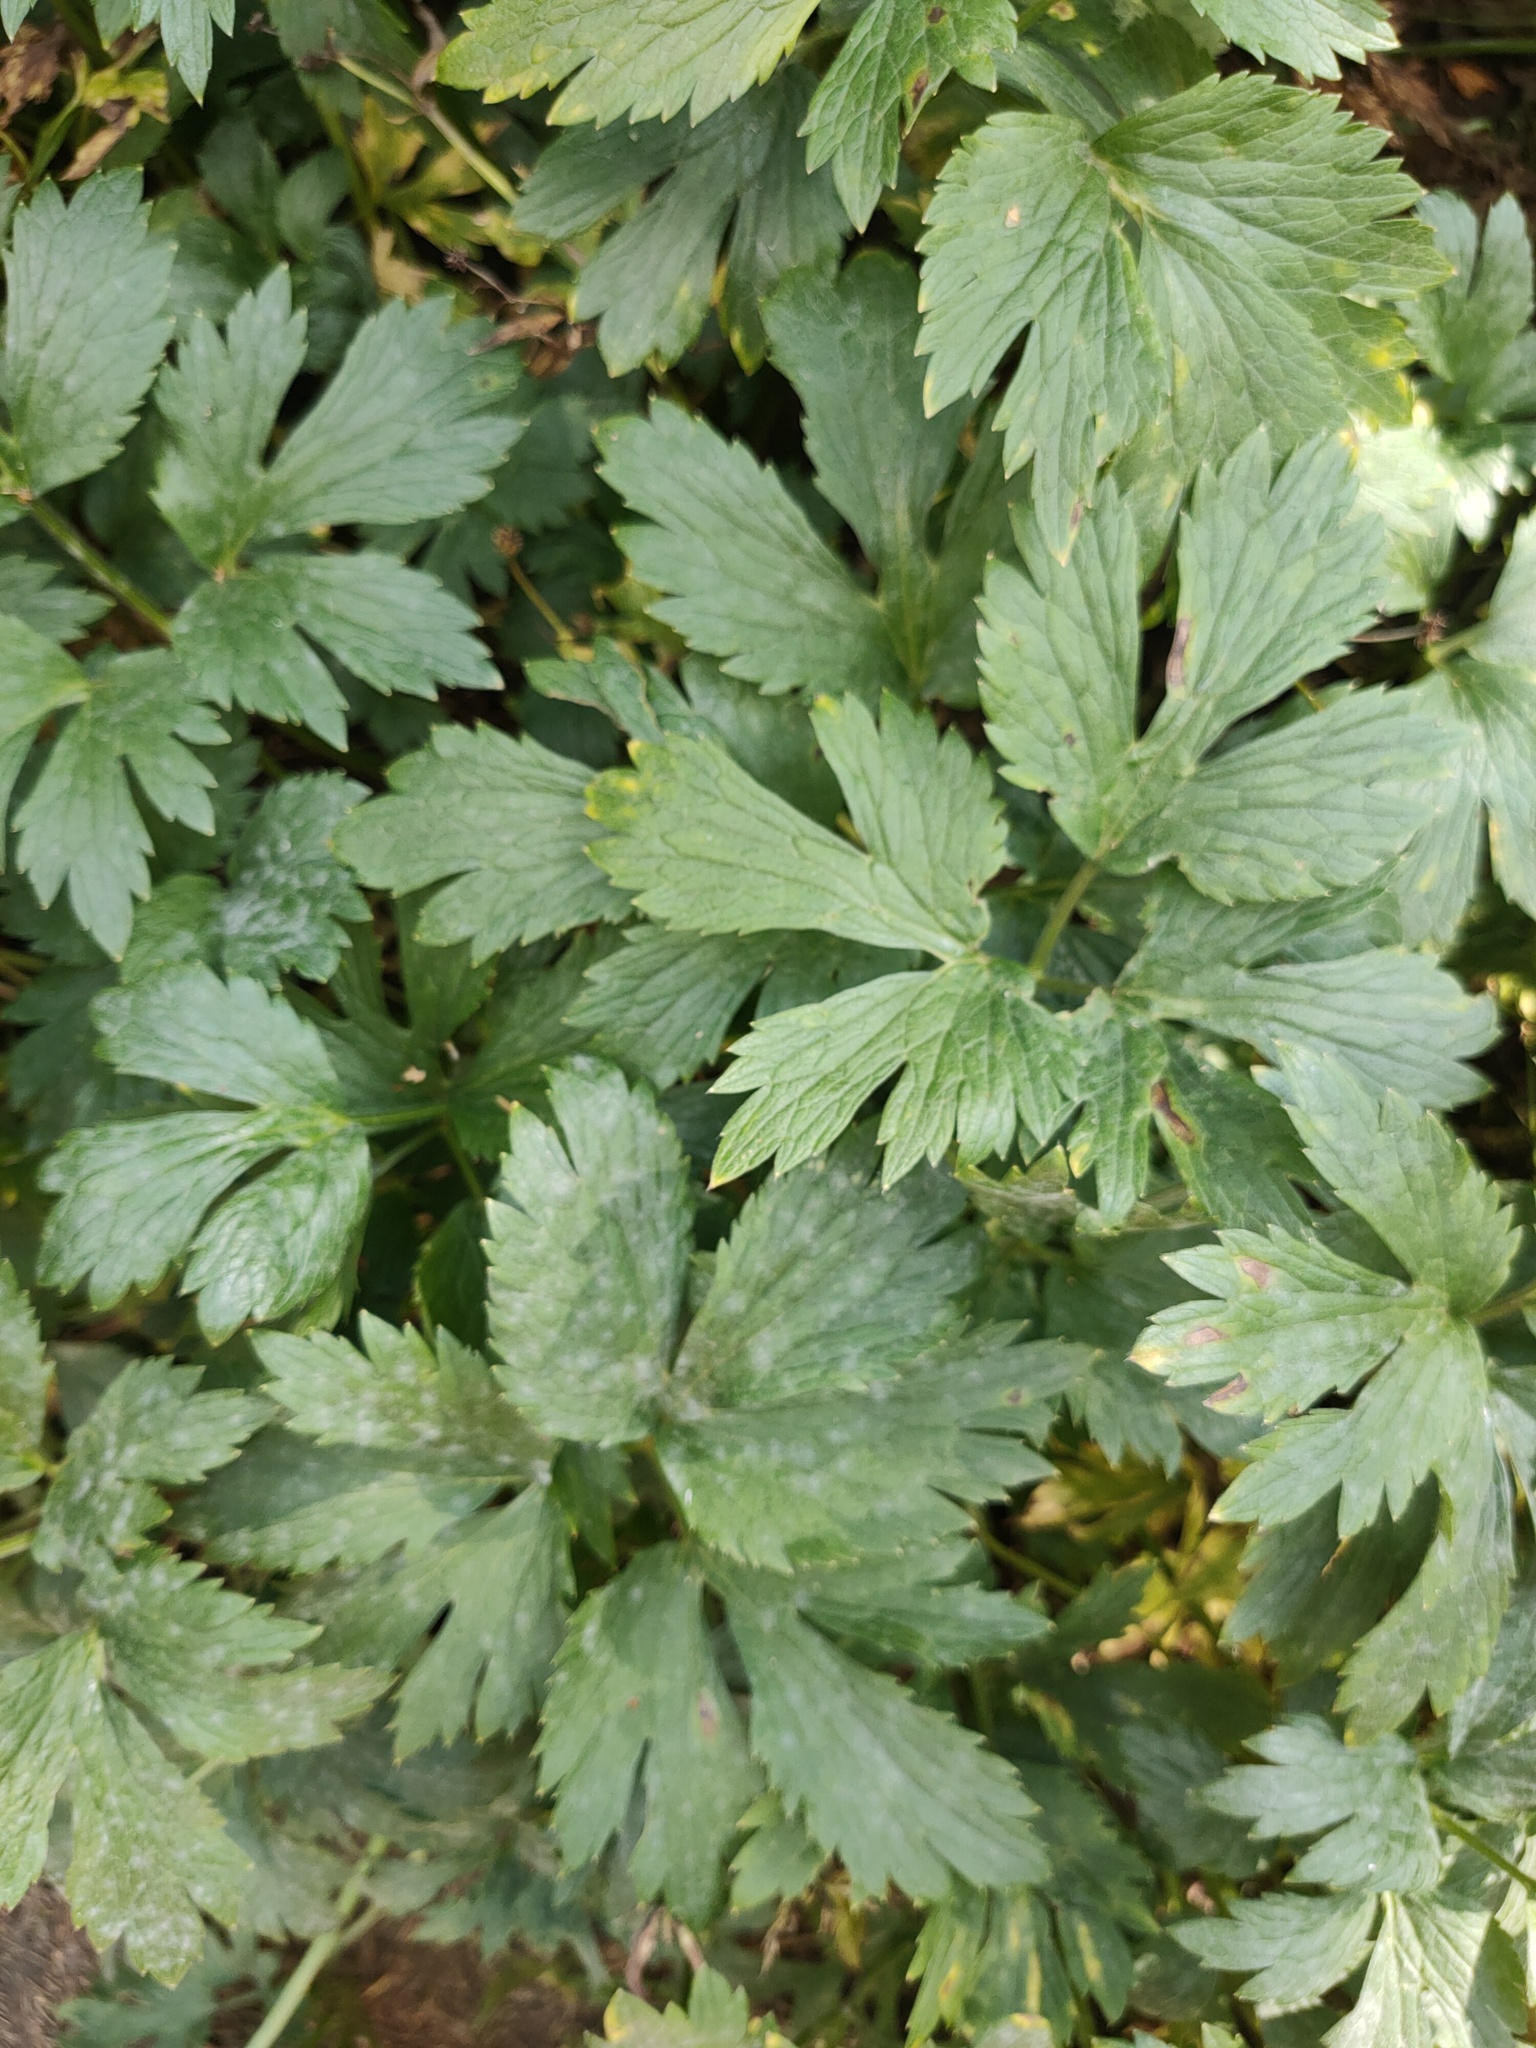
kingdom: Plantae
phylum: Tracheophyta
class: Magnoliopsida
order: Ranunculales
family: Ranunculaceae
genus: Ranunculus
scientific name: Ranunculus repens
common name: Creeping buttercup
